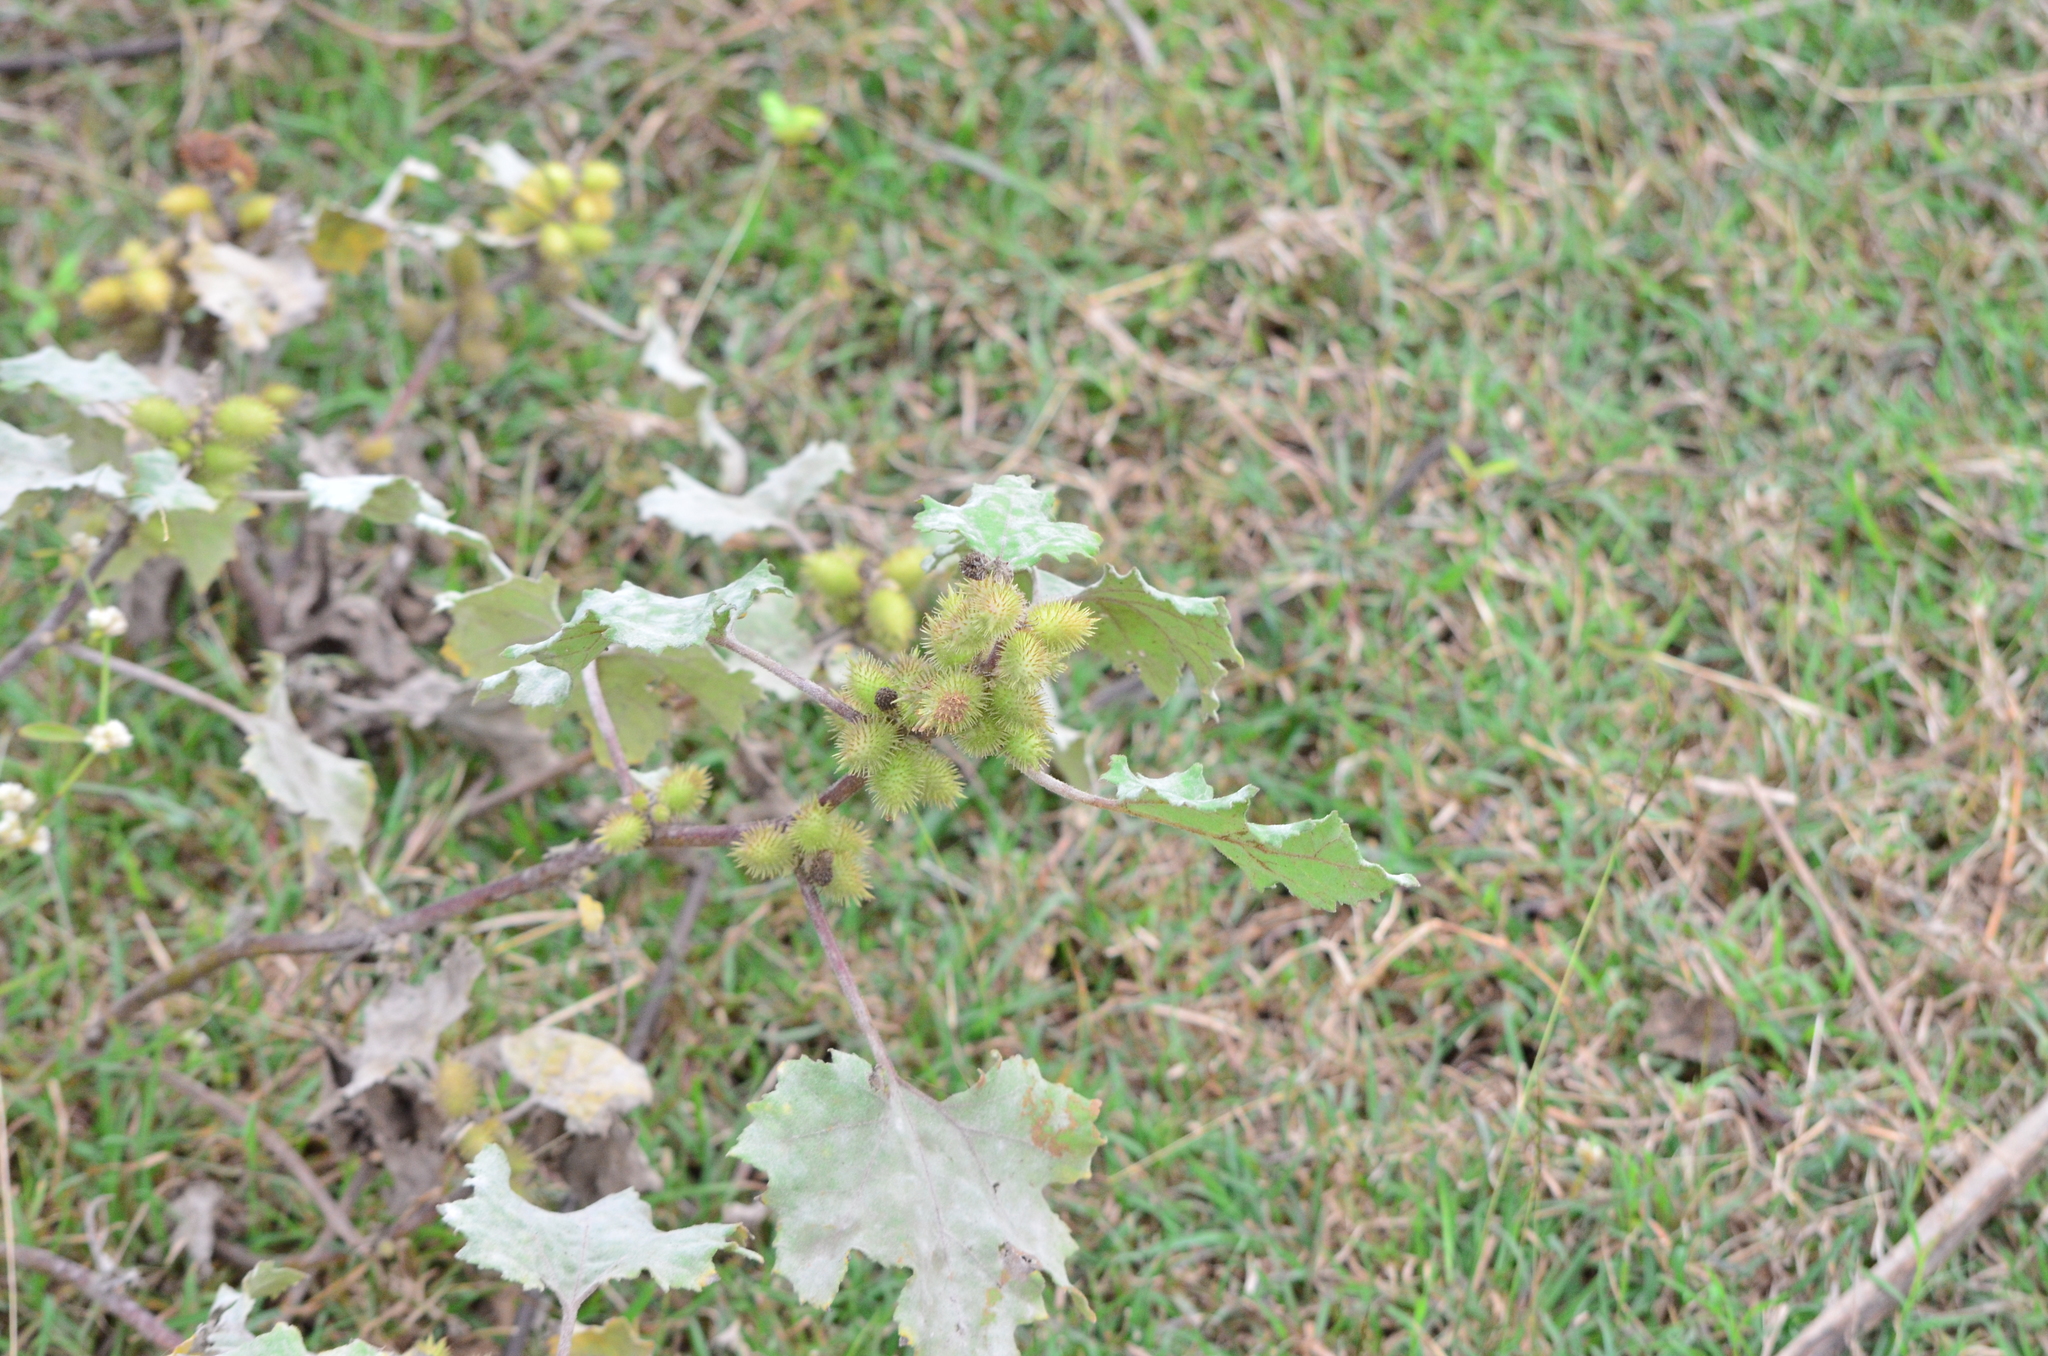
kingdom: Plantae
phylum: Tracheophyta
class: Magnoliopsida
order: Asterales
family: Asteraceae
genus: Xanthium
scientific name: Xanthium strumarium
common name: Rough cocklebur
